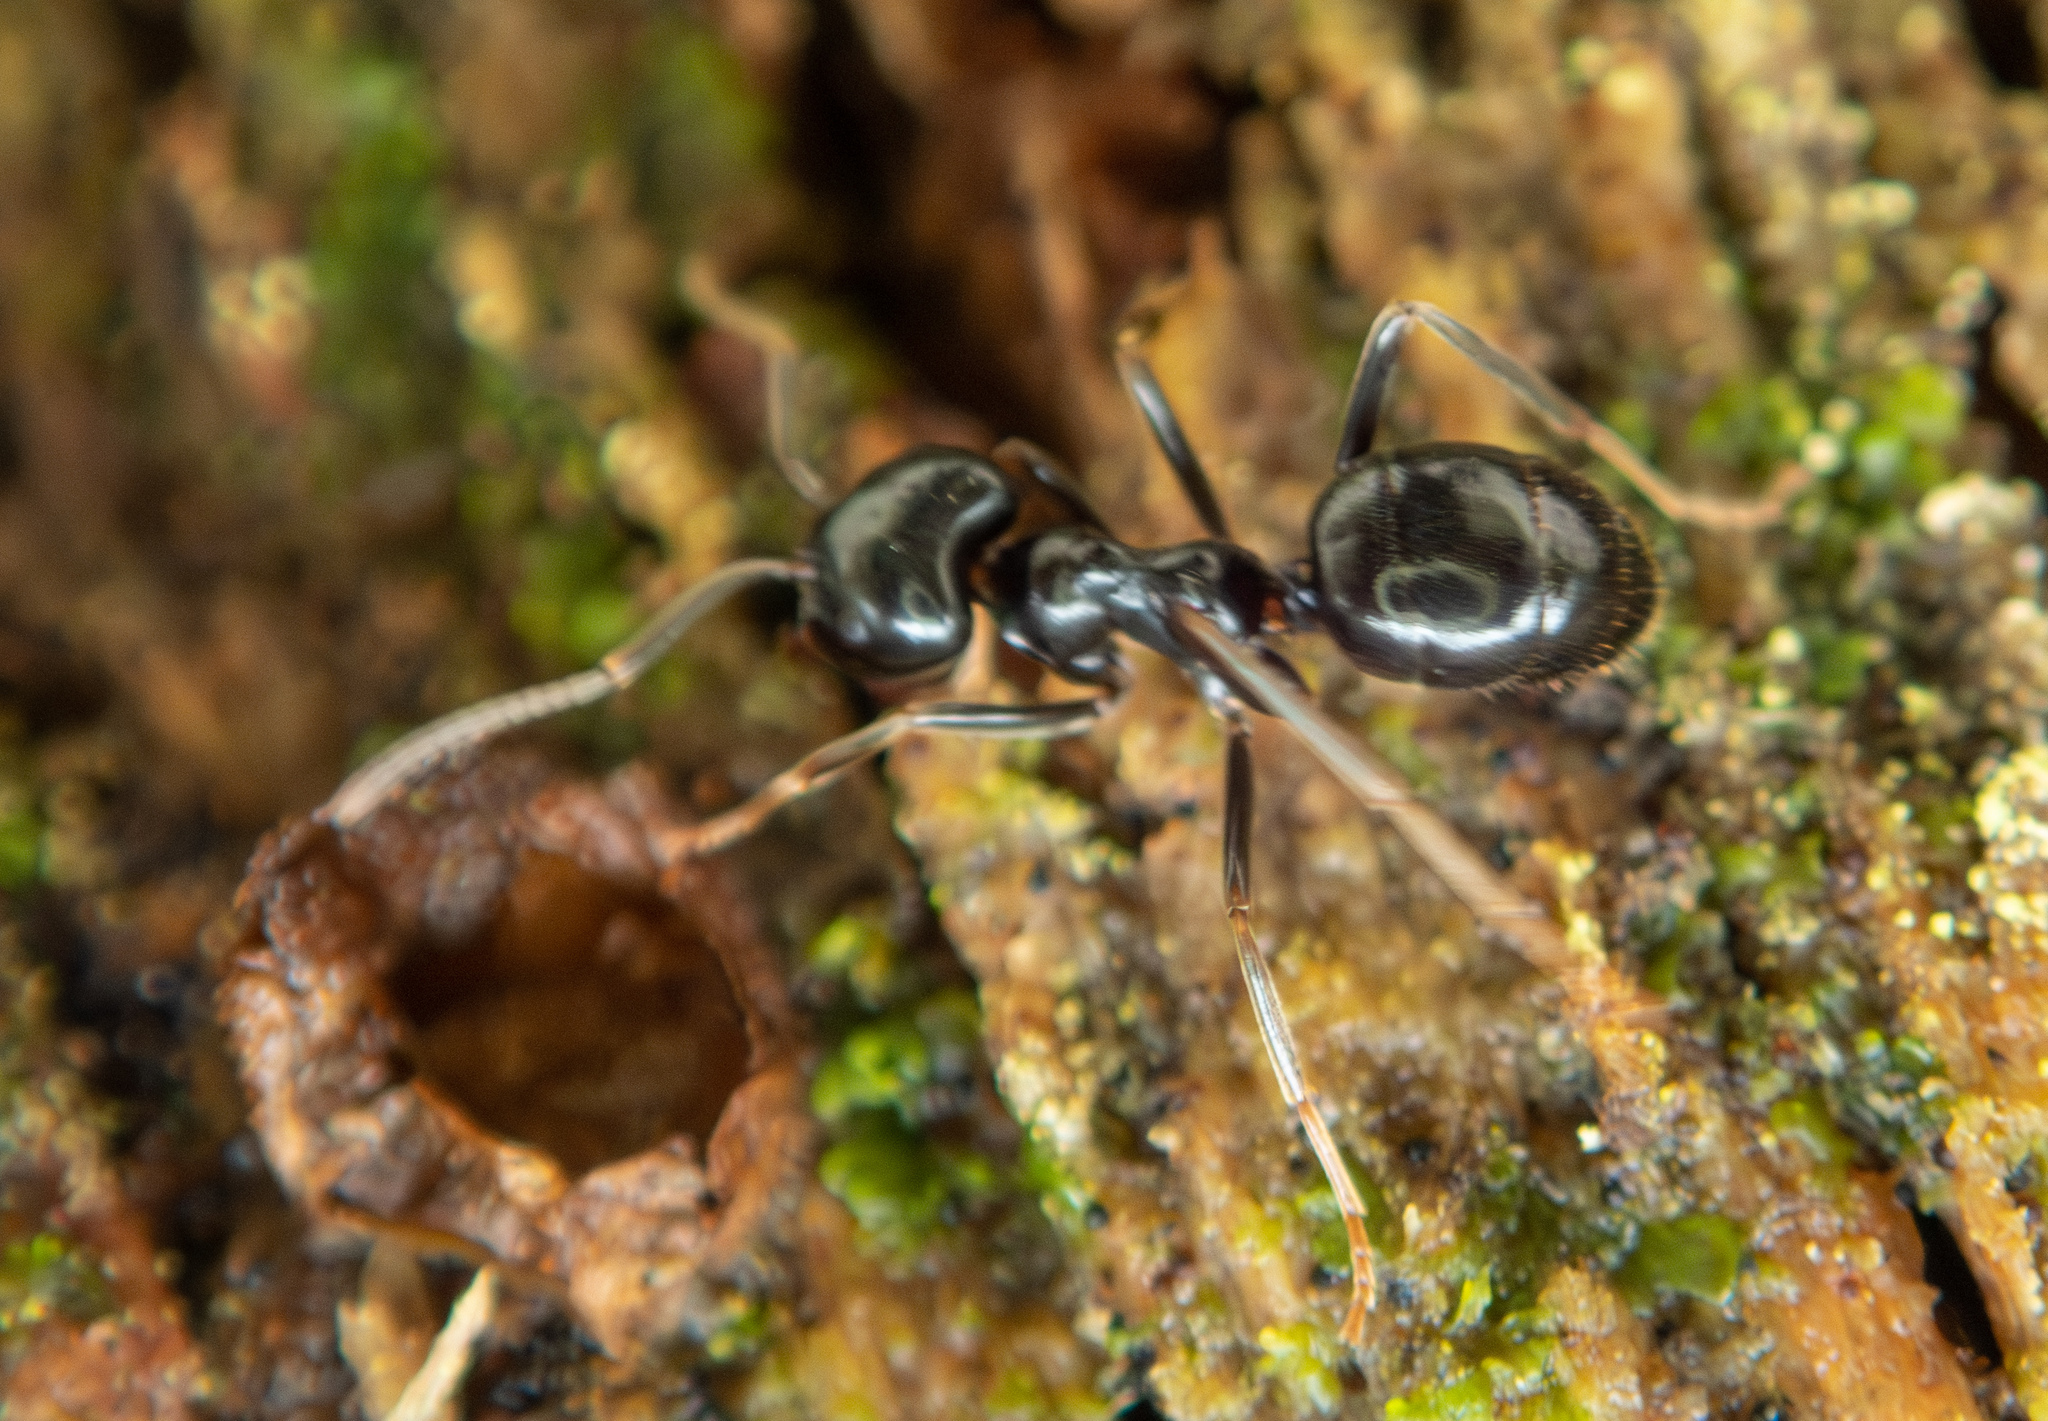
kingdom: Animalia
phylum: Arthropoda
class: Insecta
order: Hymenoptera
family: Formicidae
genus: Lasius
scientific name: Lasius fuliginosus
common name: Jet ant
